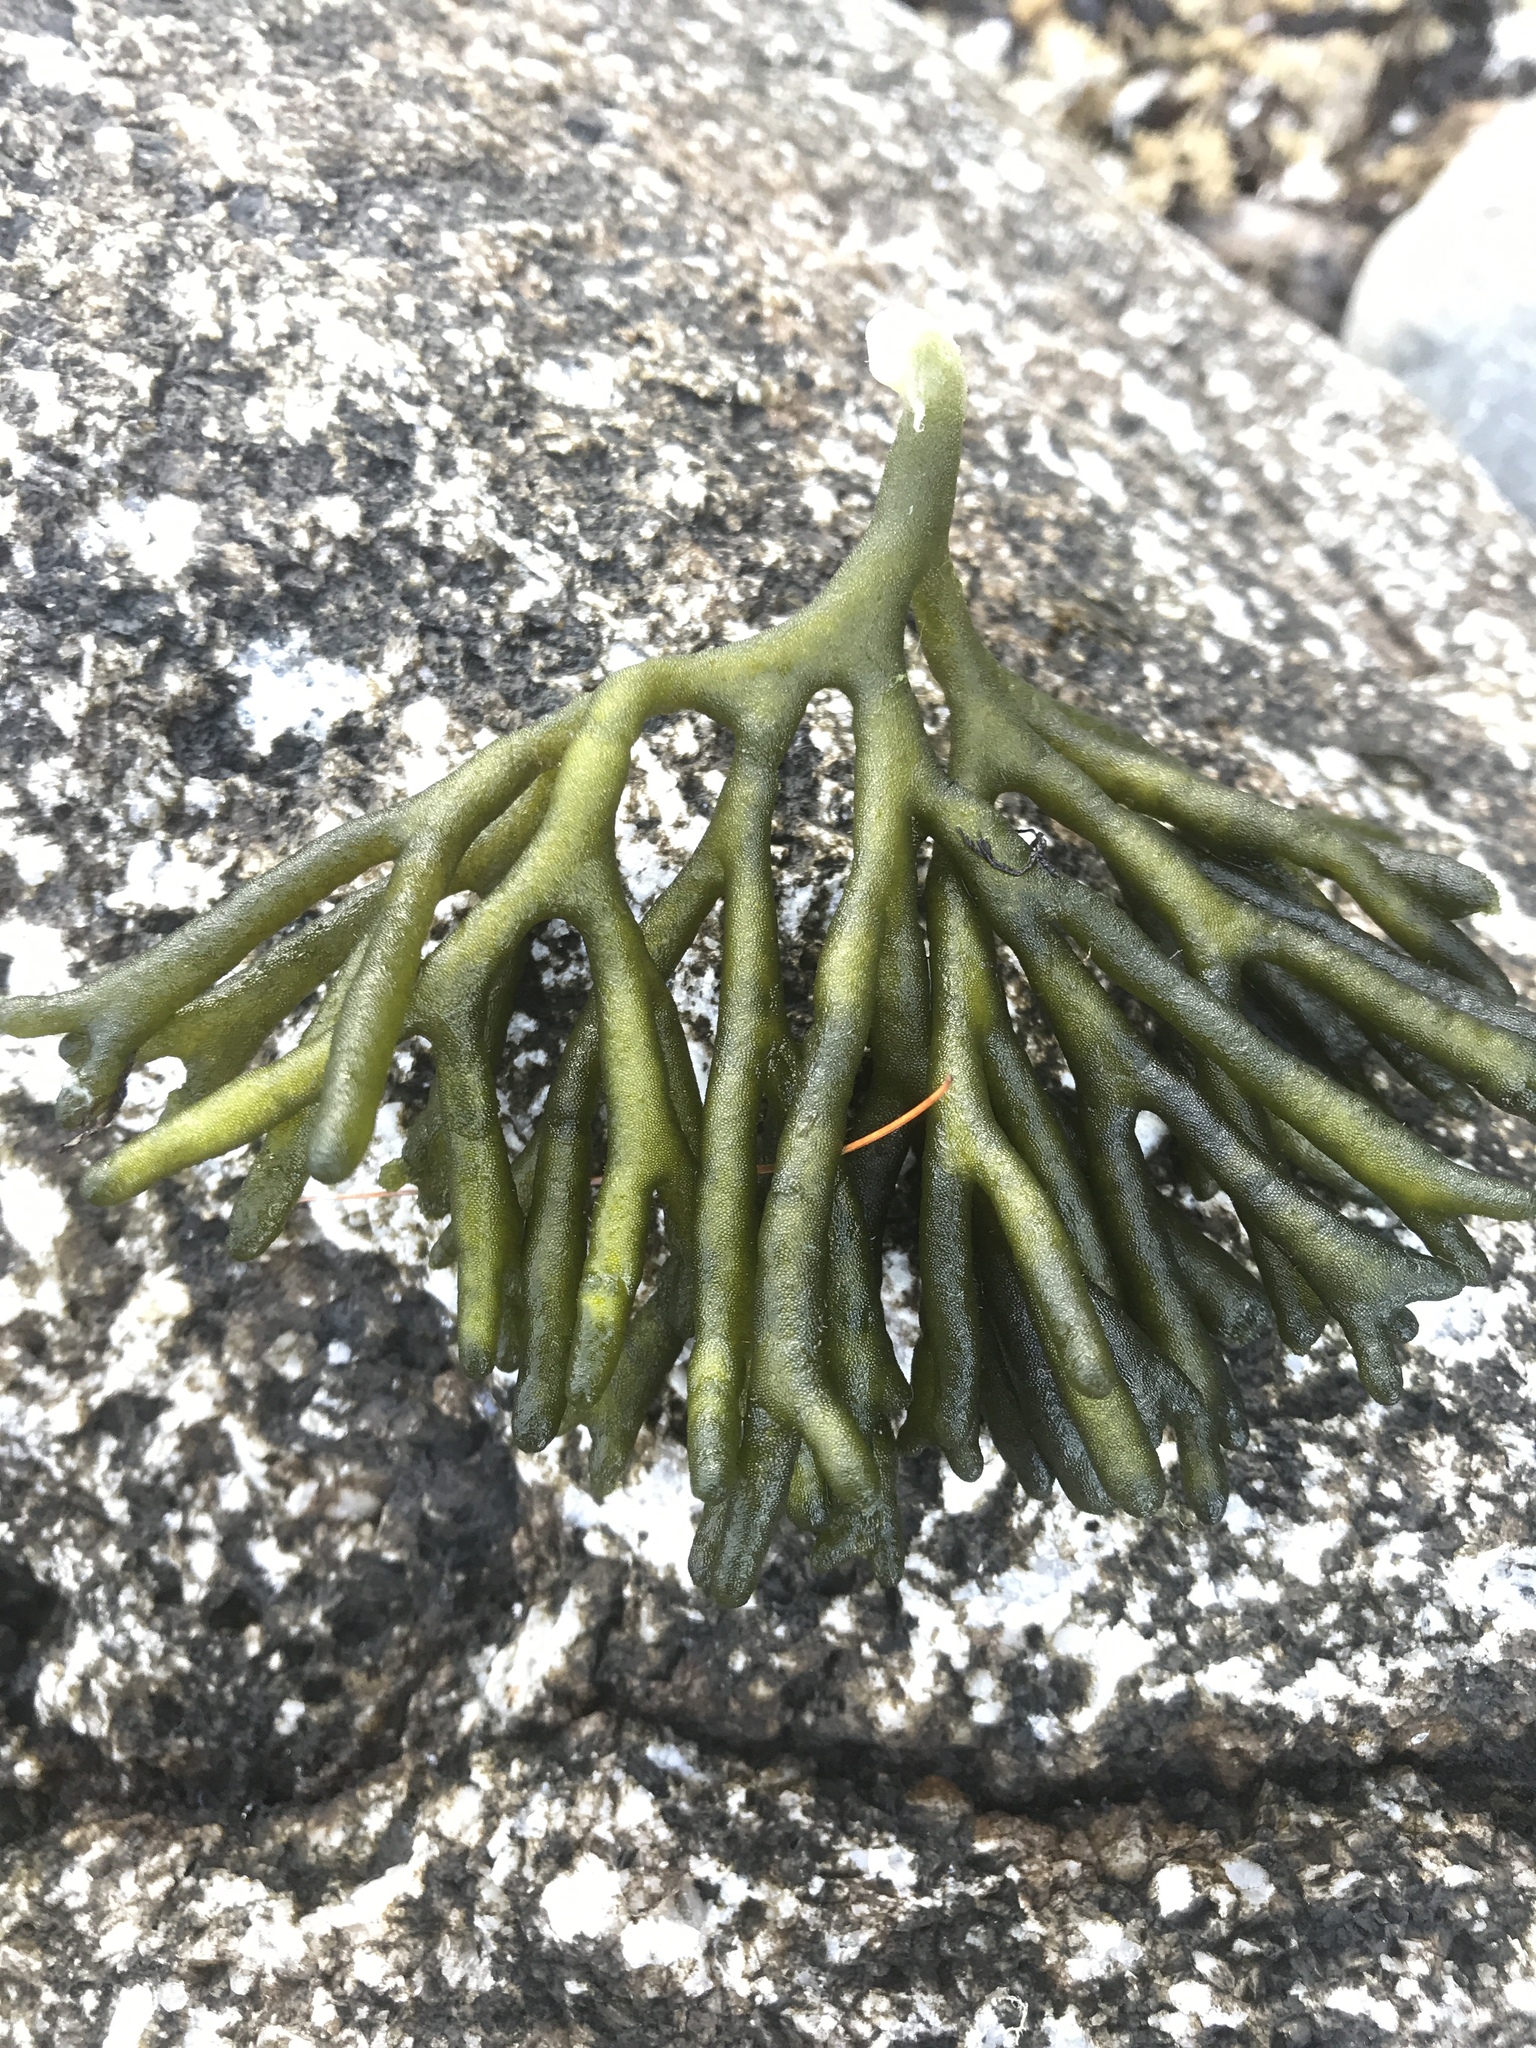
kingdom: Plantae
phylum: Chlorophyta
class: Ulvophyceae
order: Bryopsidales
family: Codiaceae
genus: Codium
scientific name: Codium fragile
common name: Dead man's fingers
